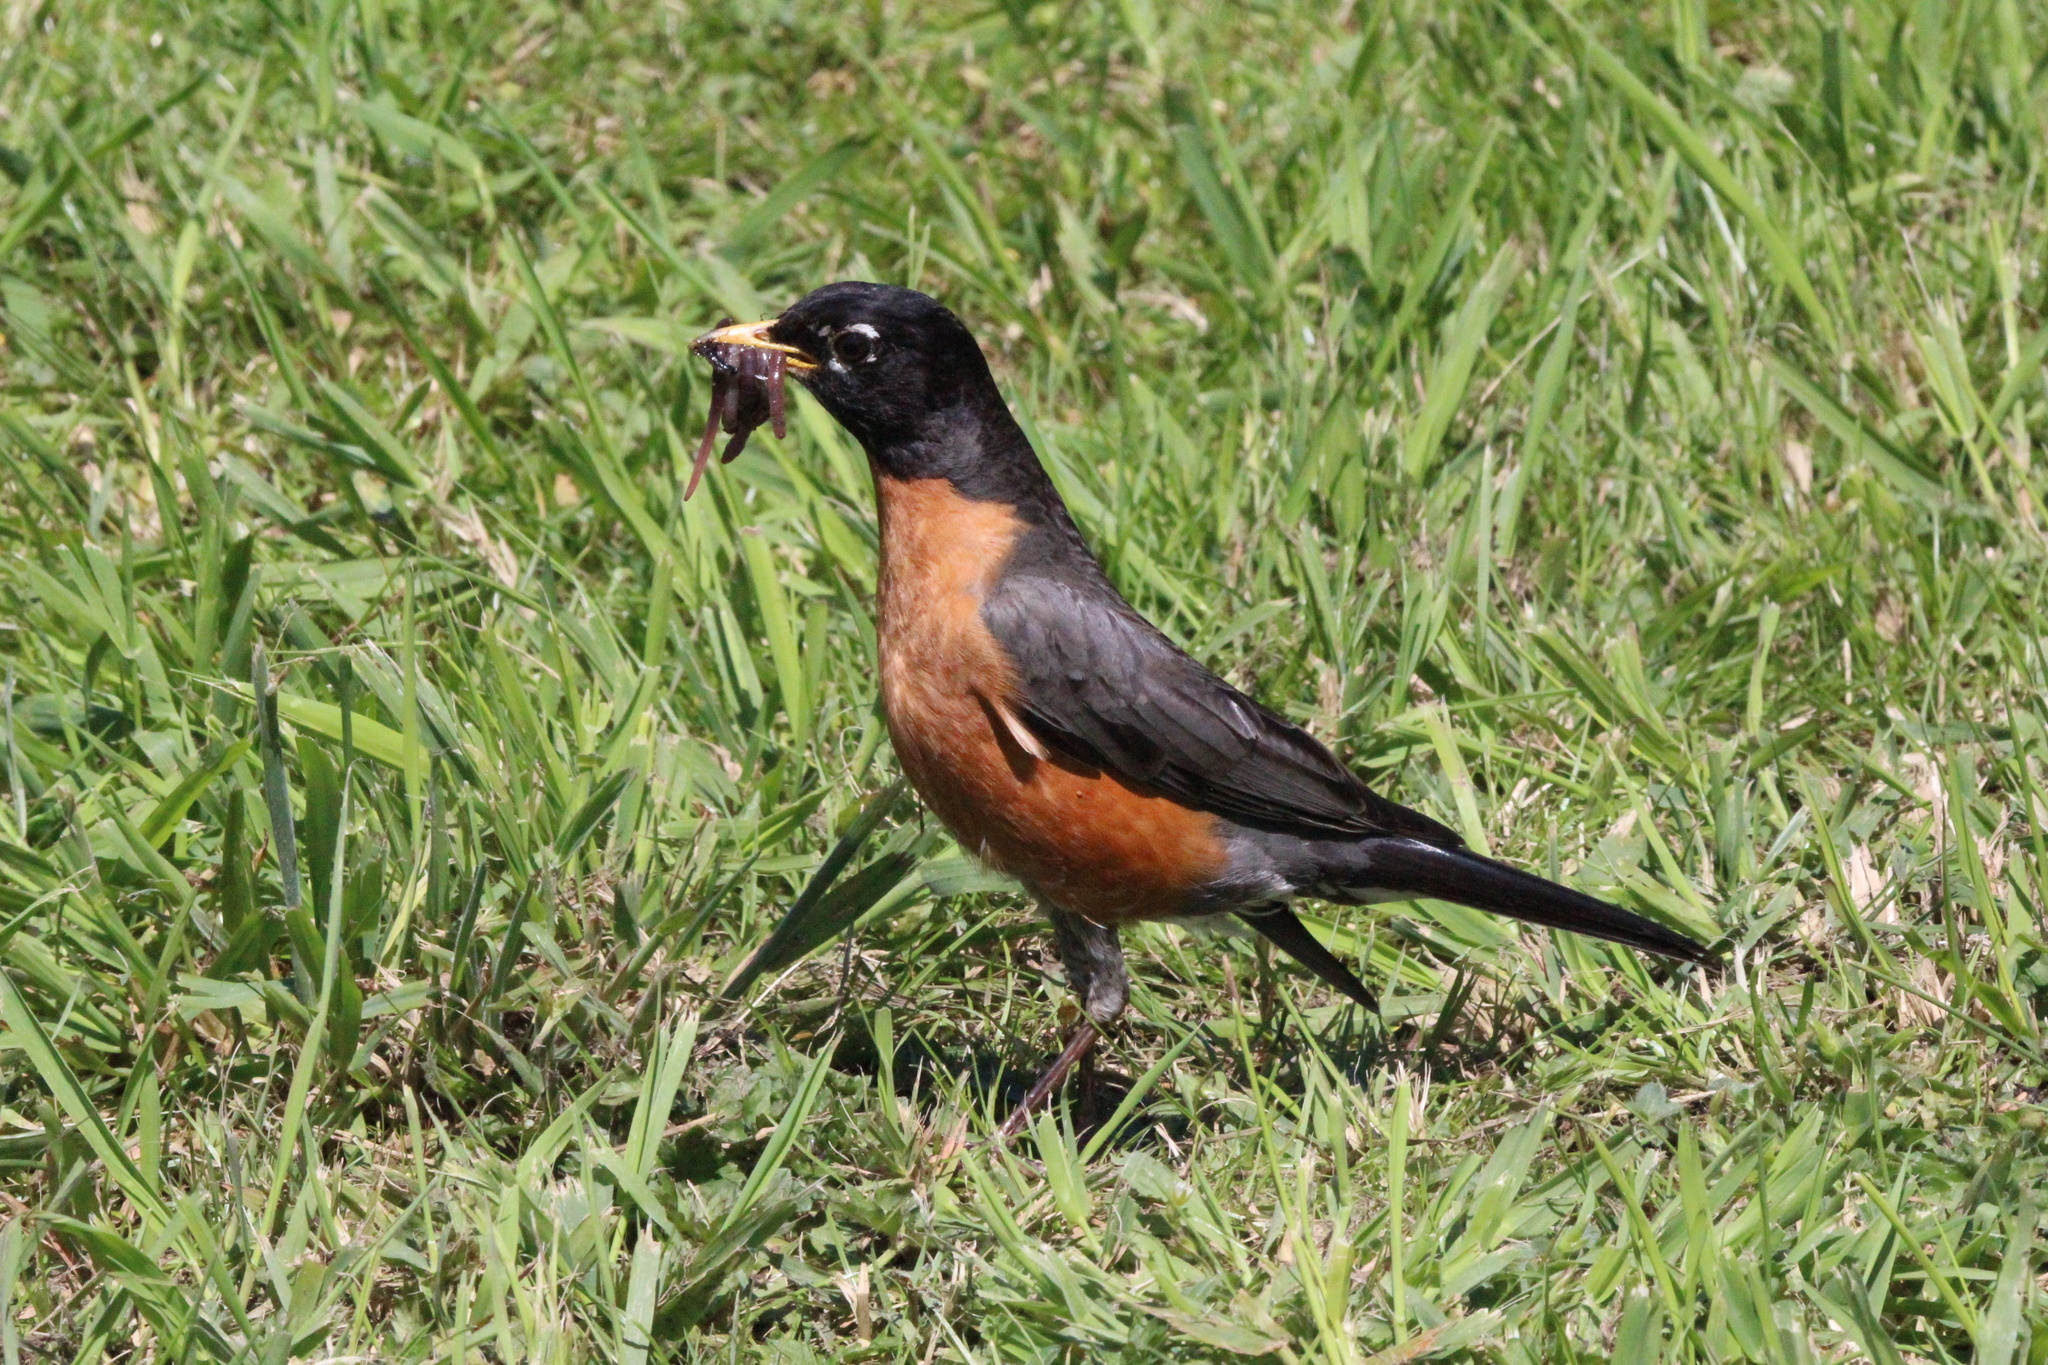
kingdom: Animalia
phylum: Chordata
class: Aves
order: Passeriformes
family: Turdidae
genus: Turdus
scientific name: Turdus migratorius
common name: American robin
